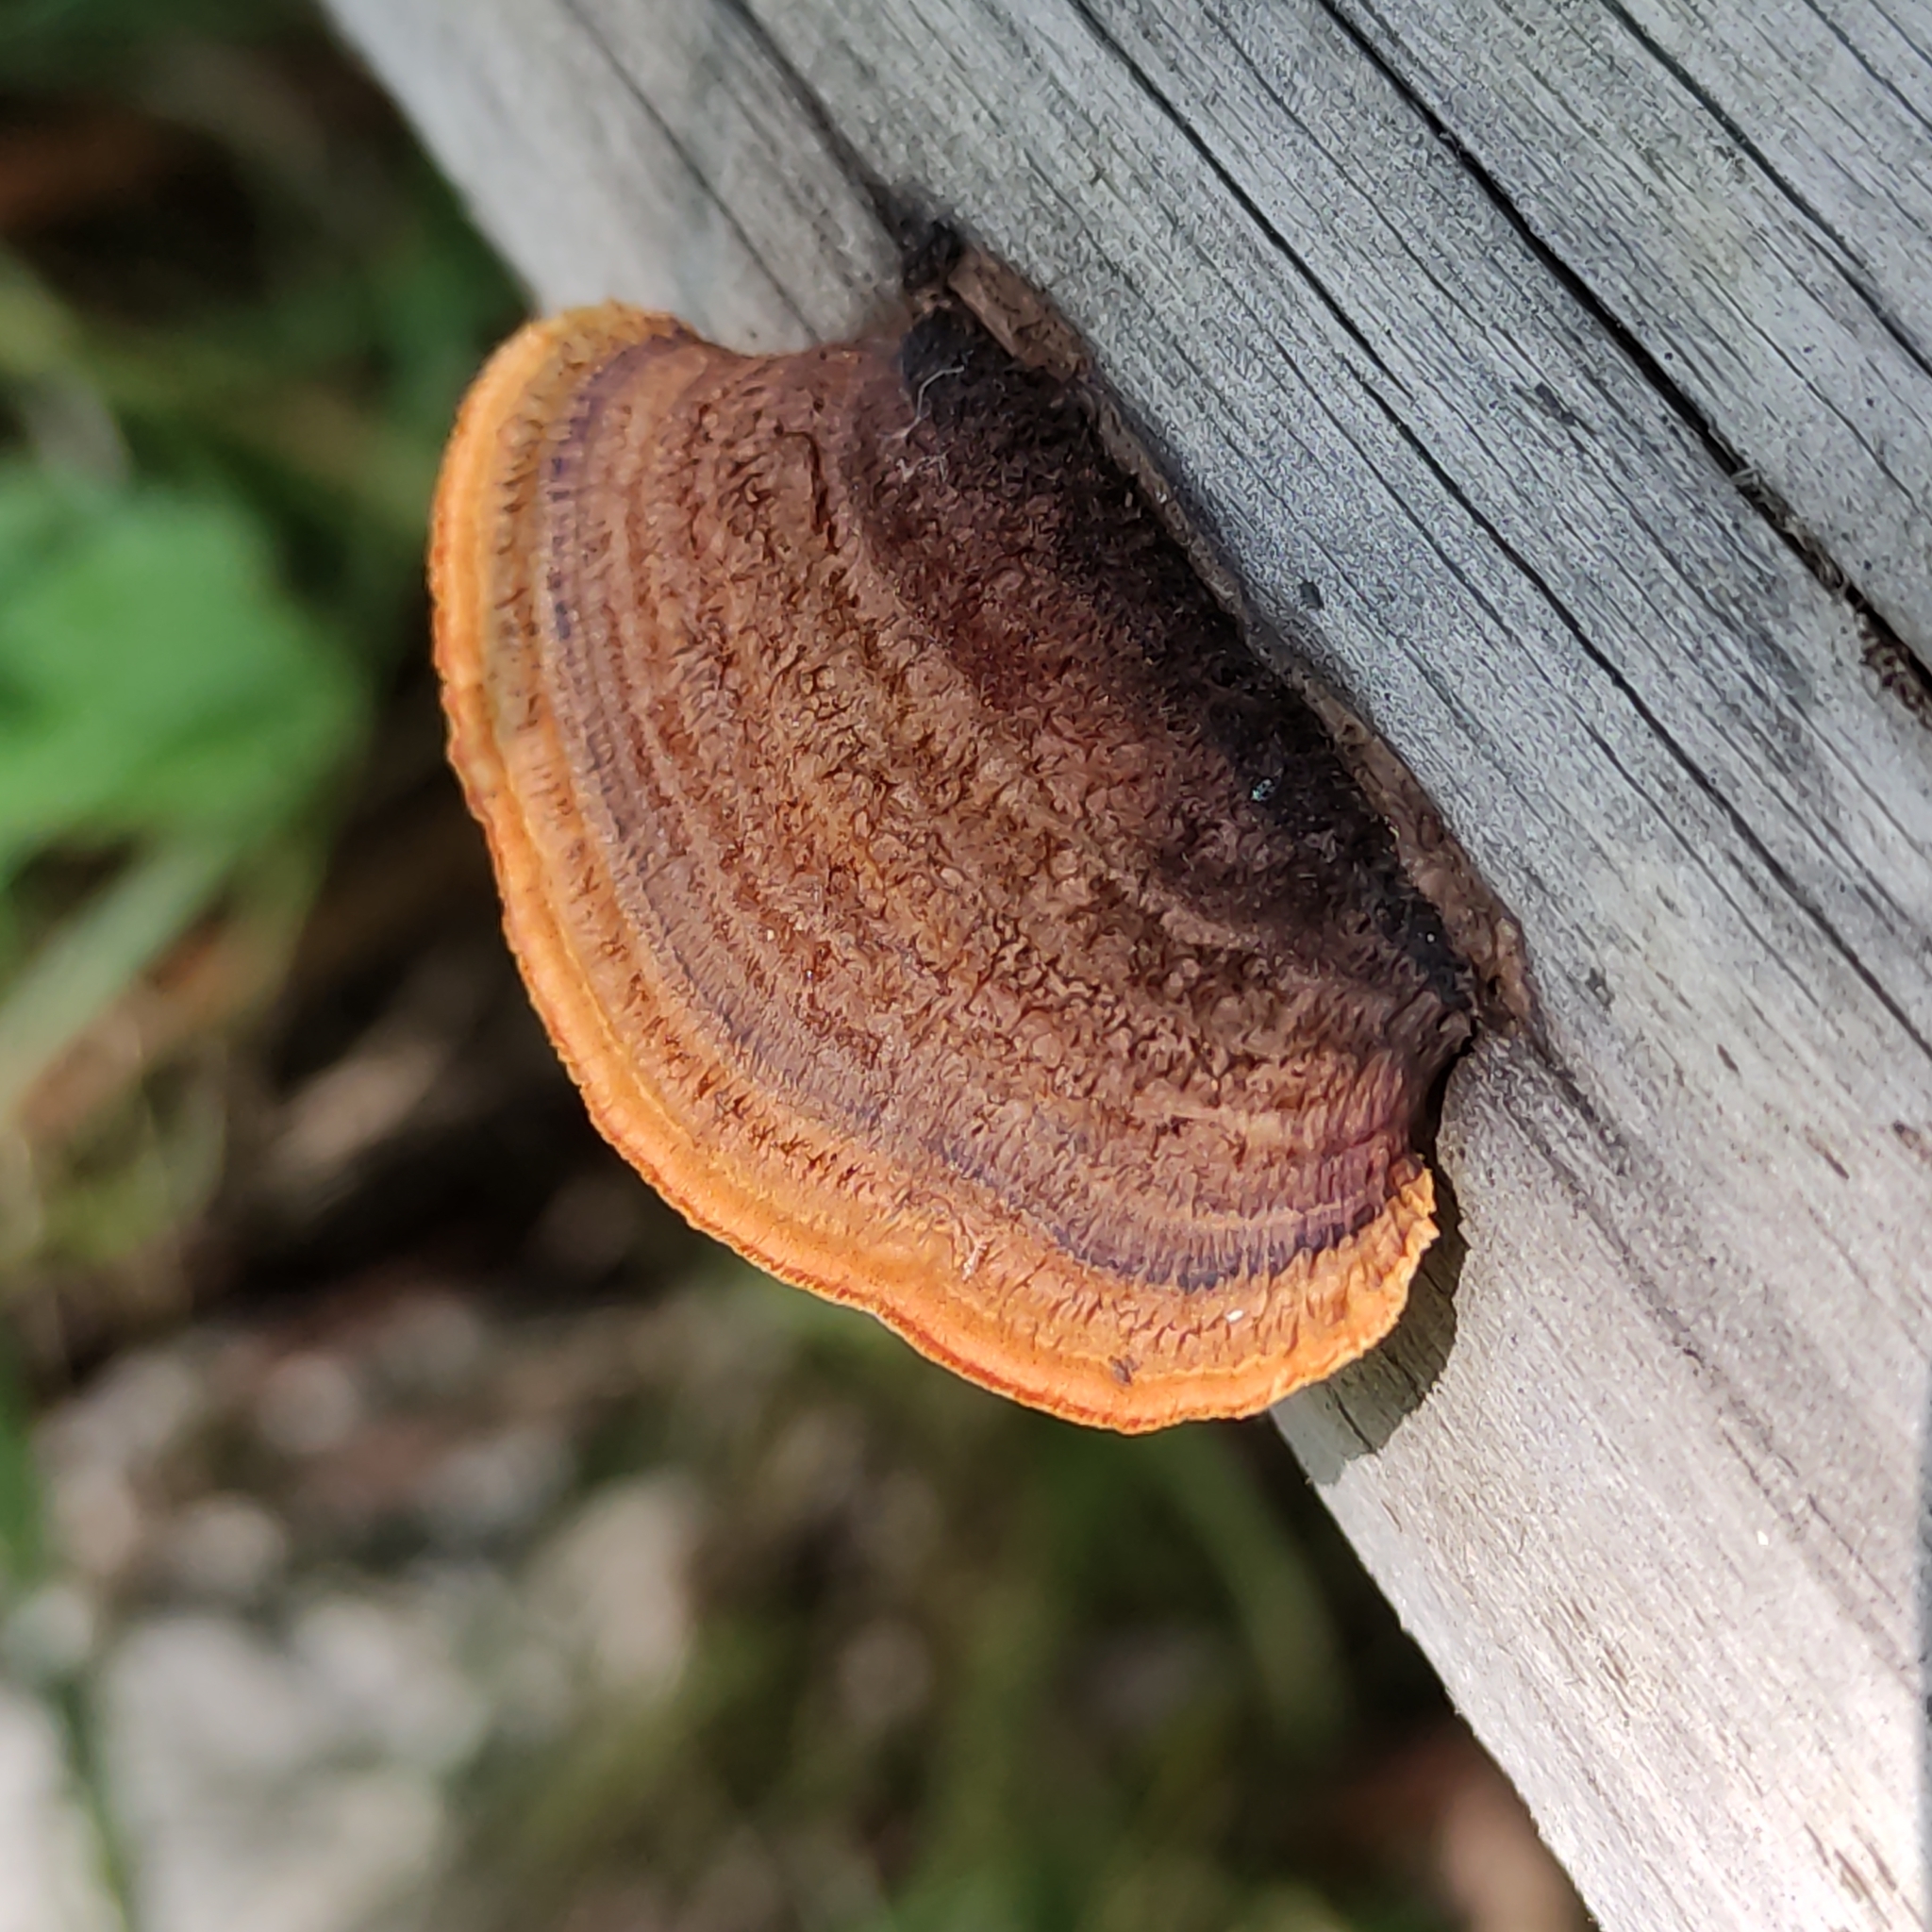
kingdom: Fungi
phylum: Basidiomycota
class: Agaricomycetes
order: Gloeophyllales
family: Gloeophyllaceae
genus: Gloeophyllum
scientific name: Gloeophyllum sepiarium
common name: Conifer mazegill
